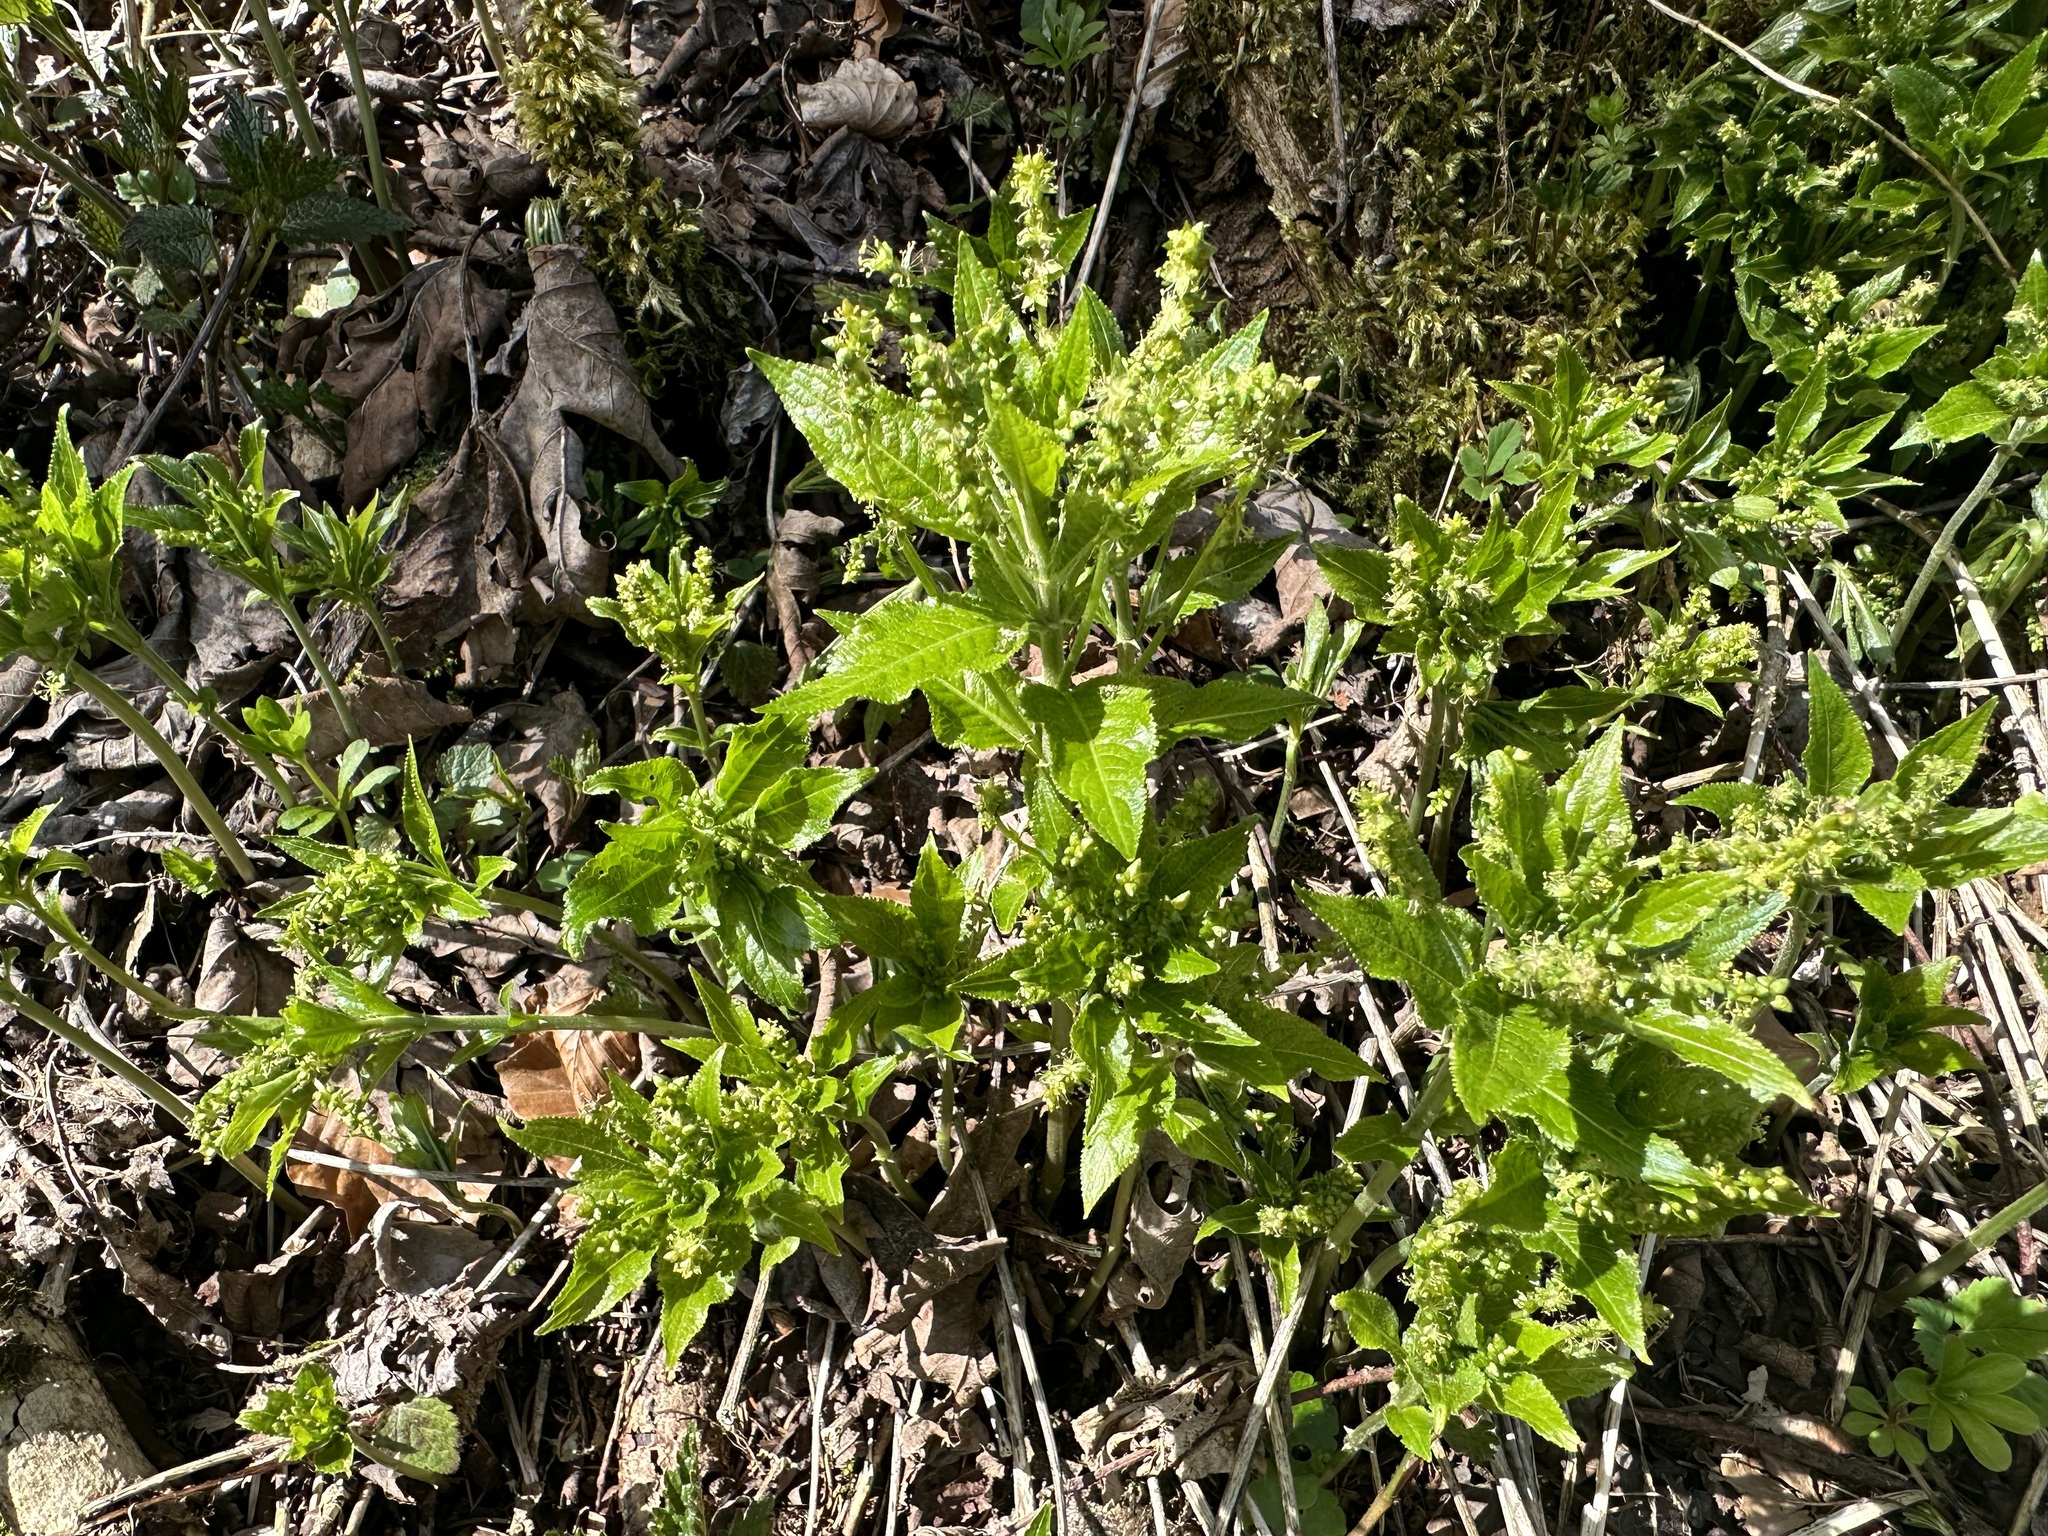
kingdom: Plantae
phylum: Tracheophyta
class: Magnoliopsida
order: Malpighiales
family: Euphorbiaceae
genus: Mercurialis
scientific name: Mercurialis perennis
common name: Dog mercury
